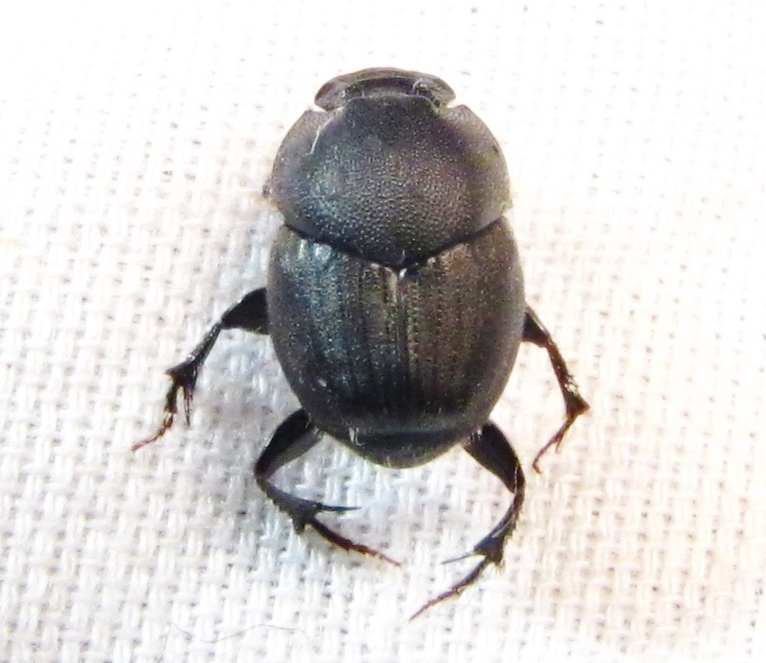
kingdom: Animalia
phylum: Arthropoda
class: Insecta
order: Coleoptera
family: Scarabaeidae
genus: Onthophagus
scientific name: Onthophagus hecate
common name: Scooped scarab
